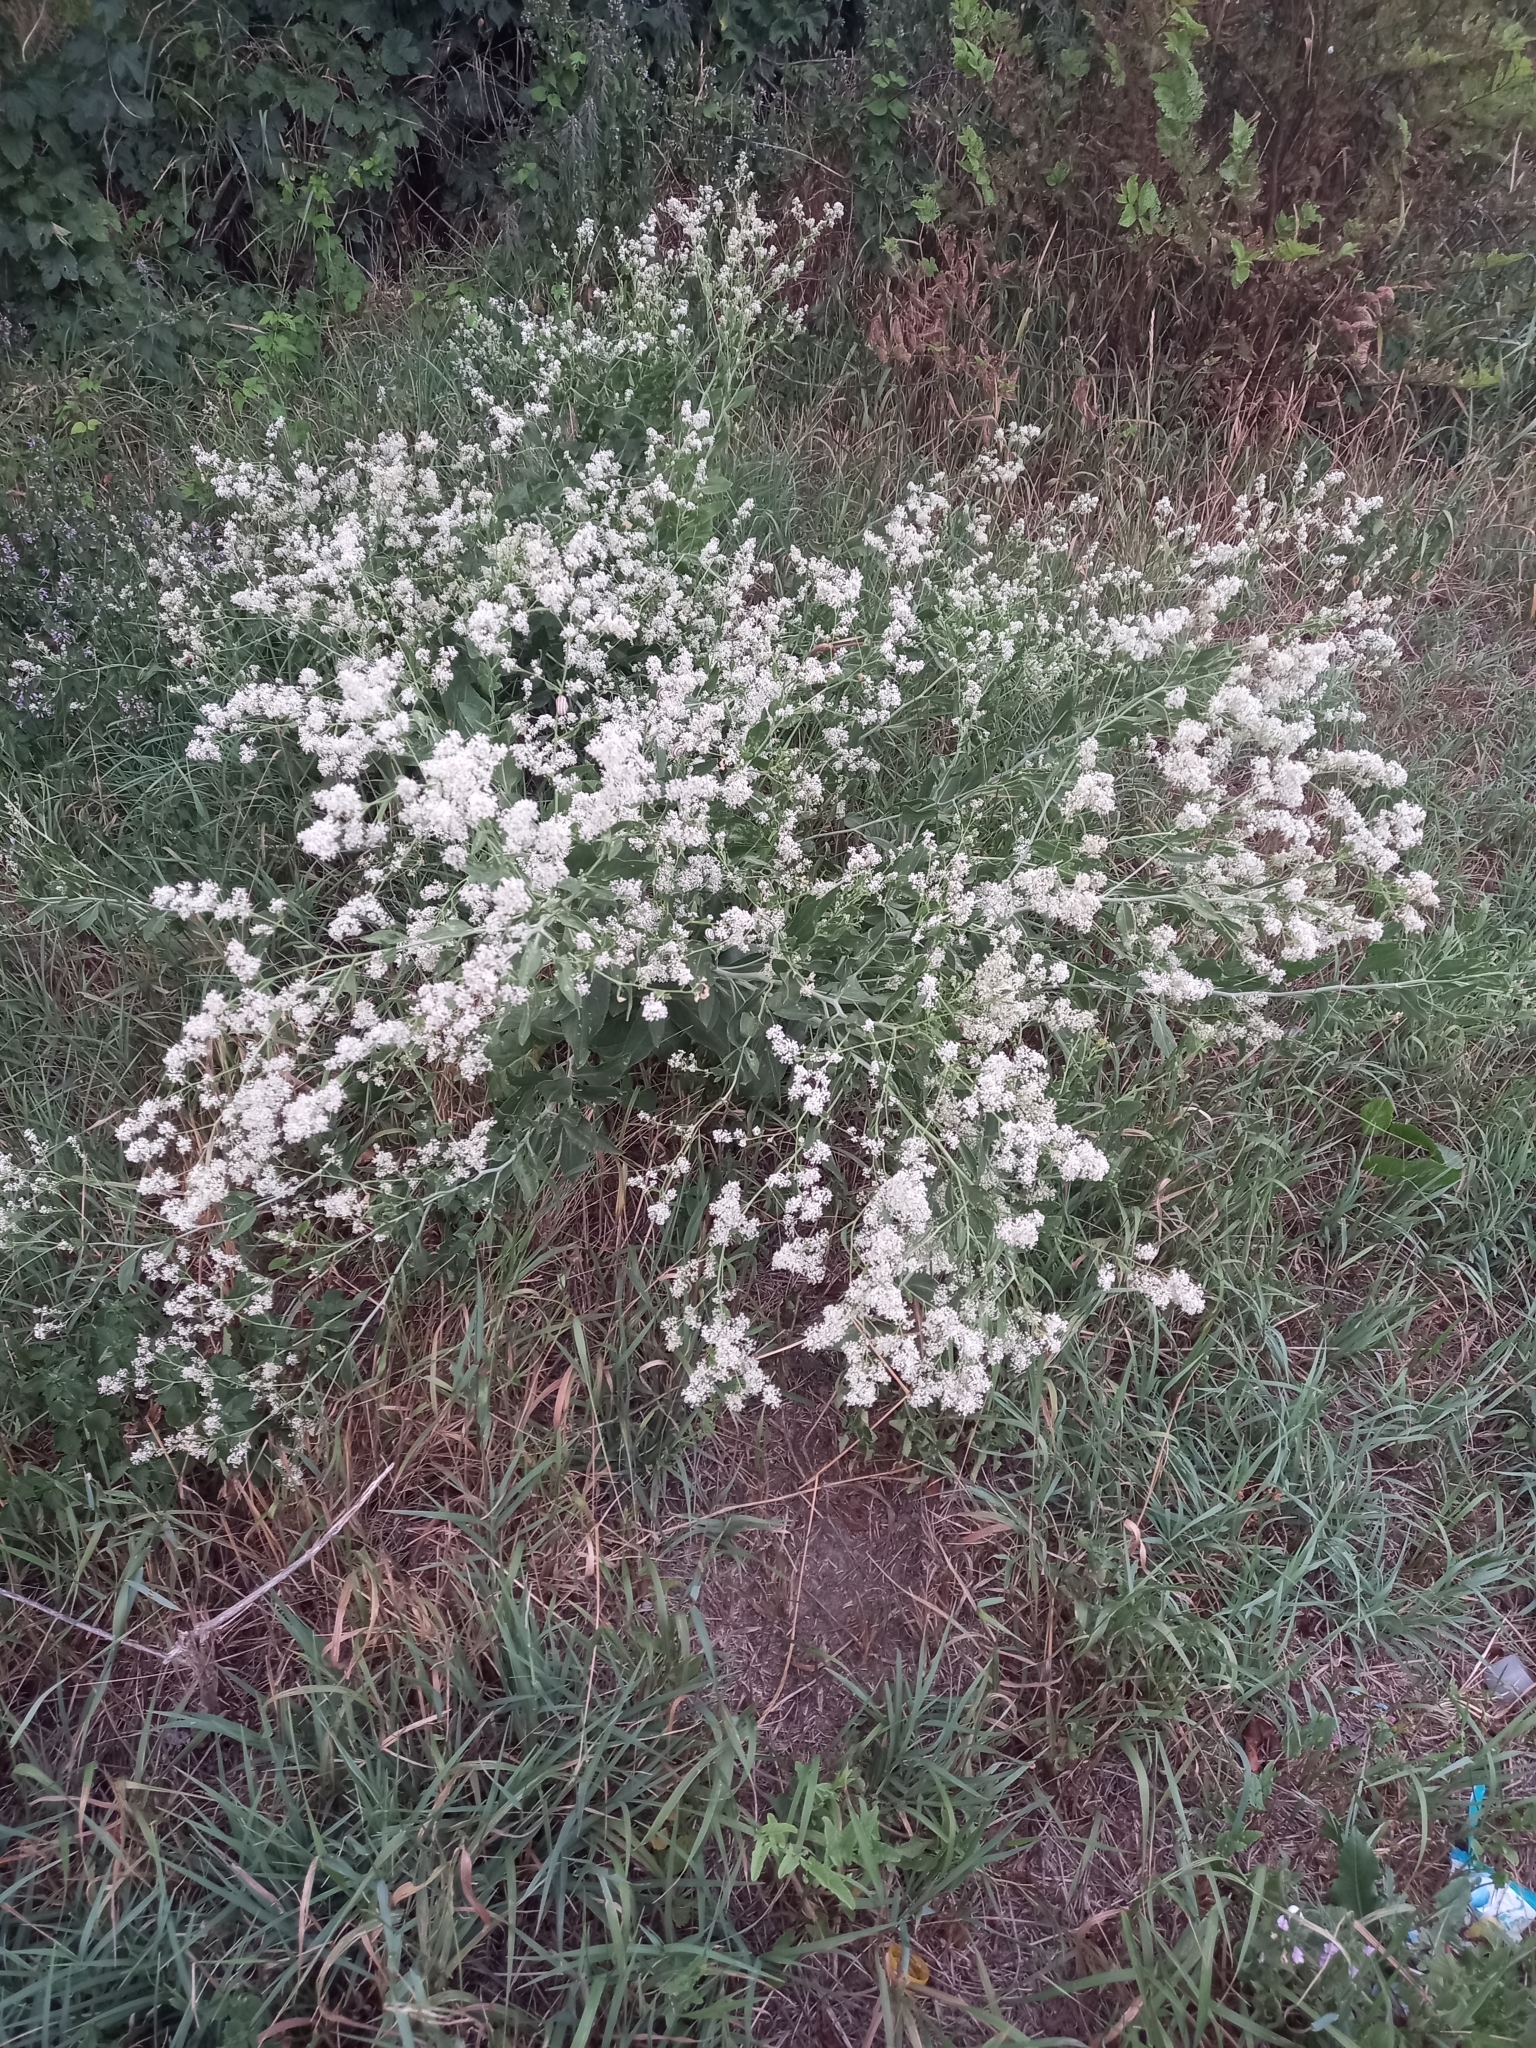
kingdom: Plantae
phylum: Tracheophyta
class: Magnoliopsida
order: Brassicales
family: Brassicaceae
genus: Lepidium
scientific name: Lepidium latifolium
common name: Dittander
